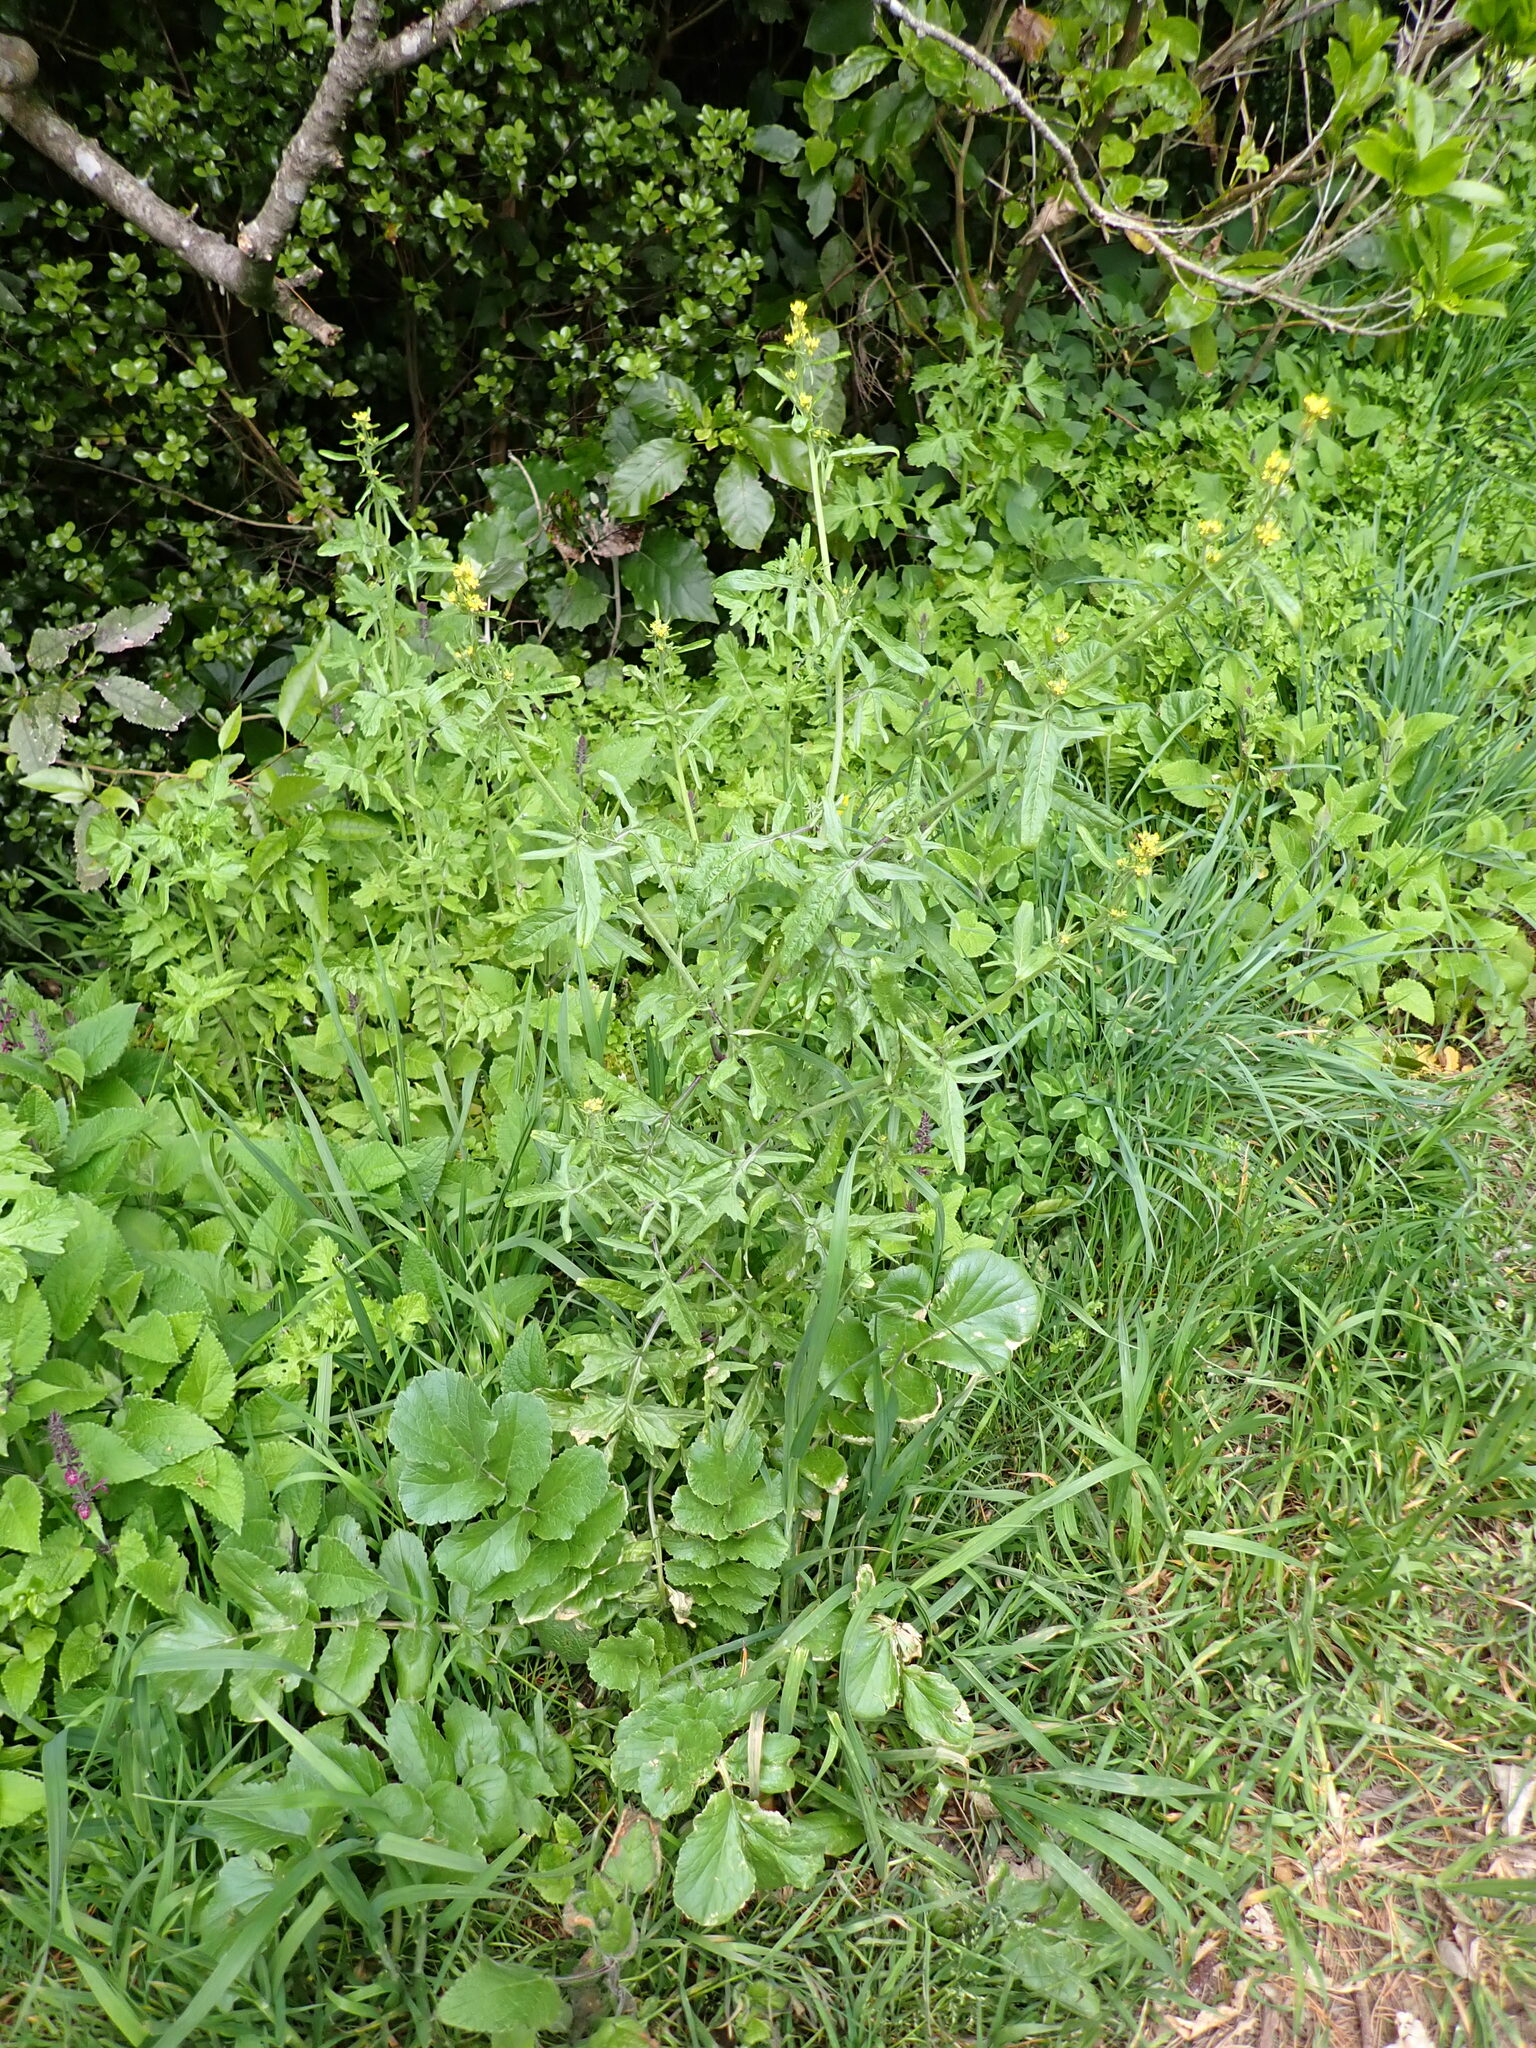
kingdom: Plantae
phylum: Tracheophyta
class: Magnoliopsida
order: Brassicales
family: Brassicaceae
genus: Sisymbrium
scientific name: Sisymbrium officinale
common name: Hedge mustard
